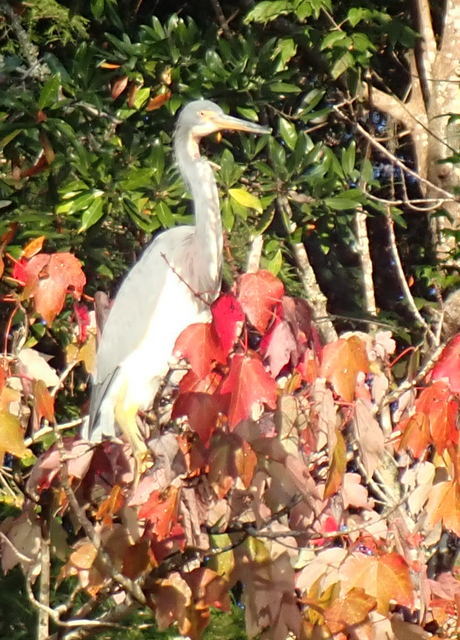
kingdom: Animalia
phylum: Chordata
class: Aves
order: Pelecaniformes
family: Ardeidae
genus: Egretta
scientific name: Egretta tricolor
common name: Tricolored heron
